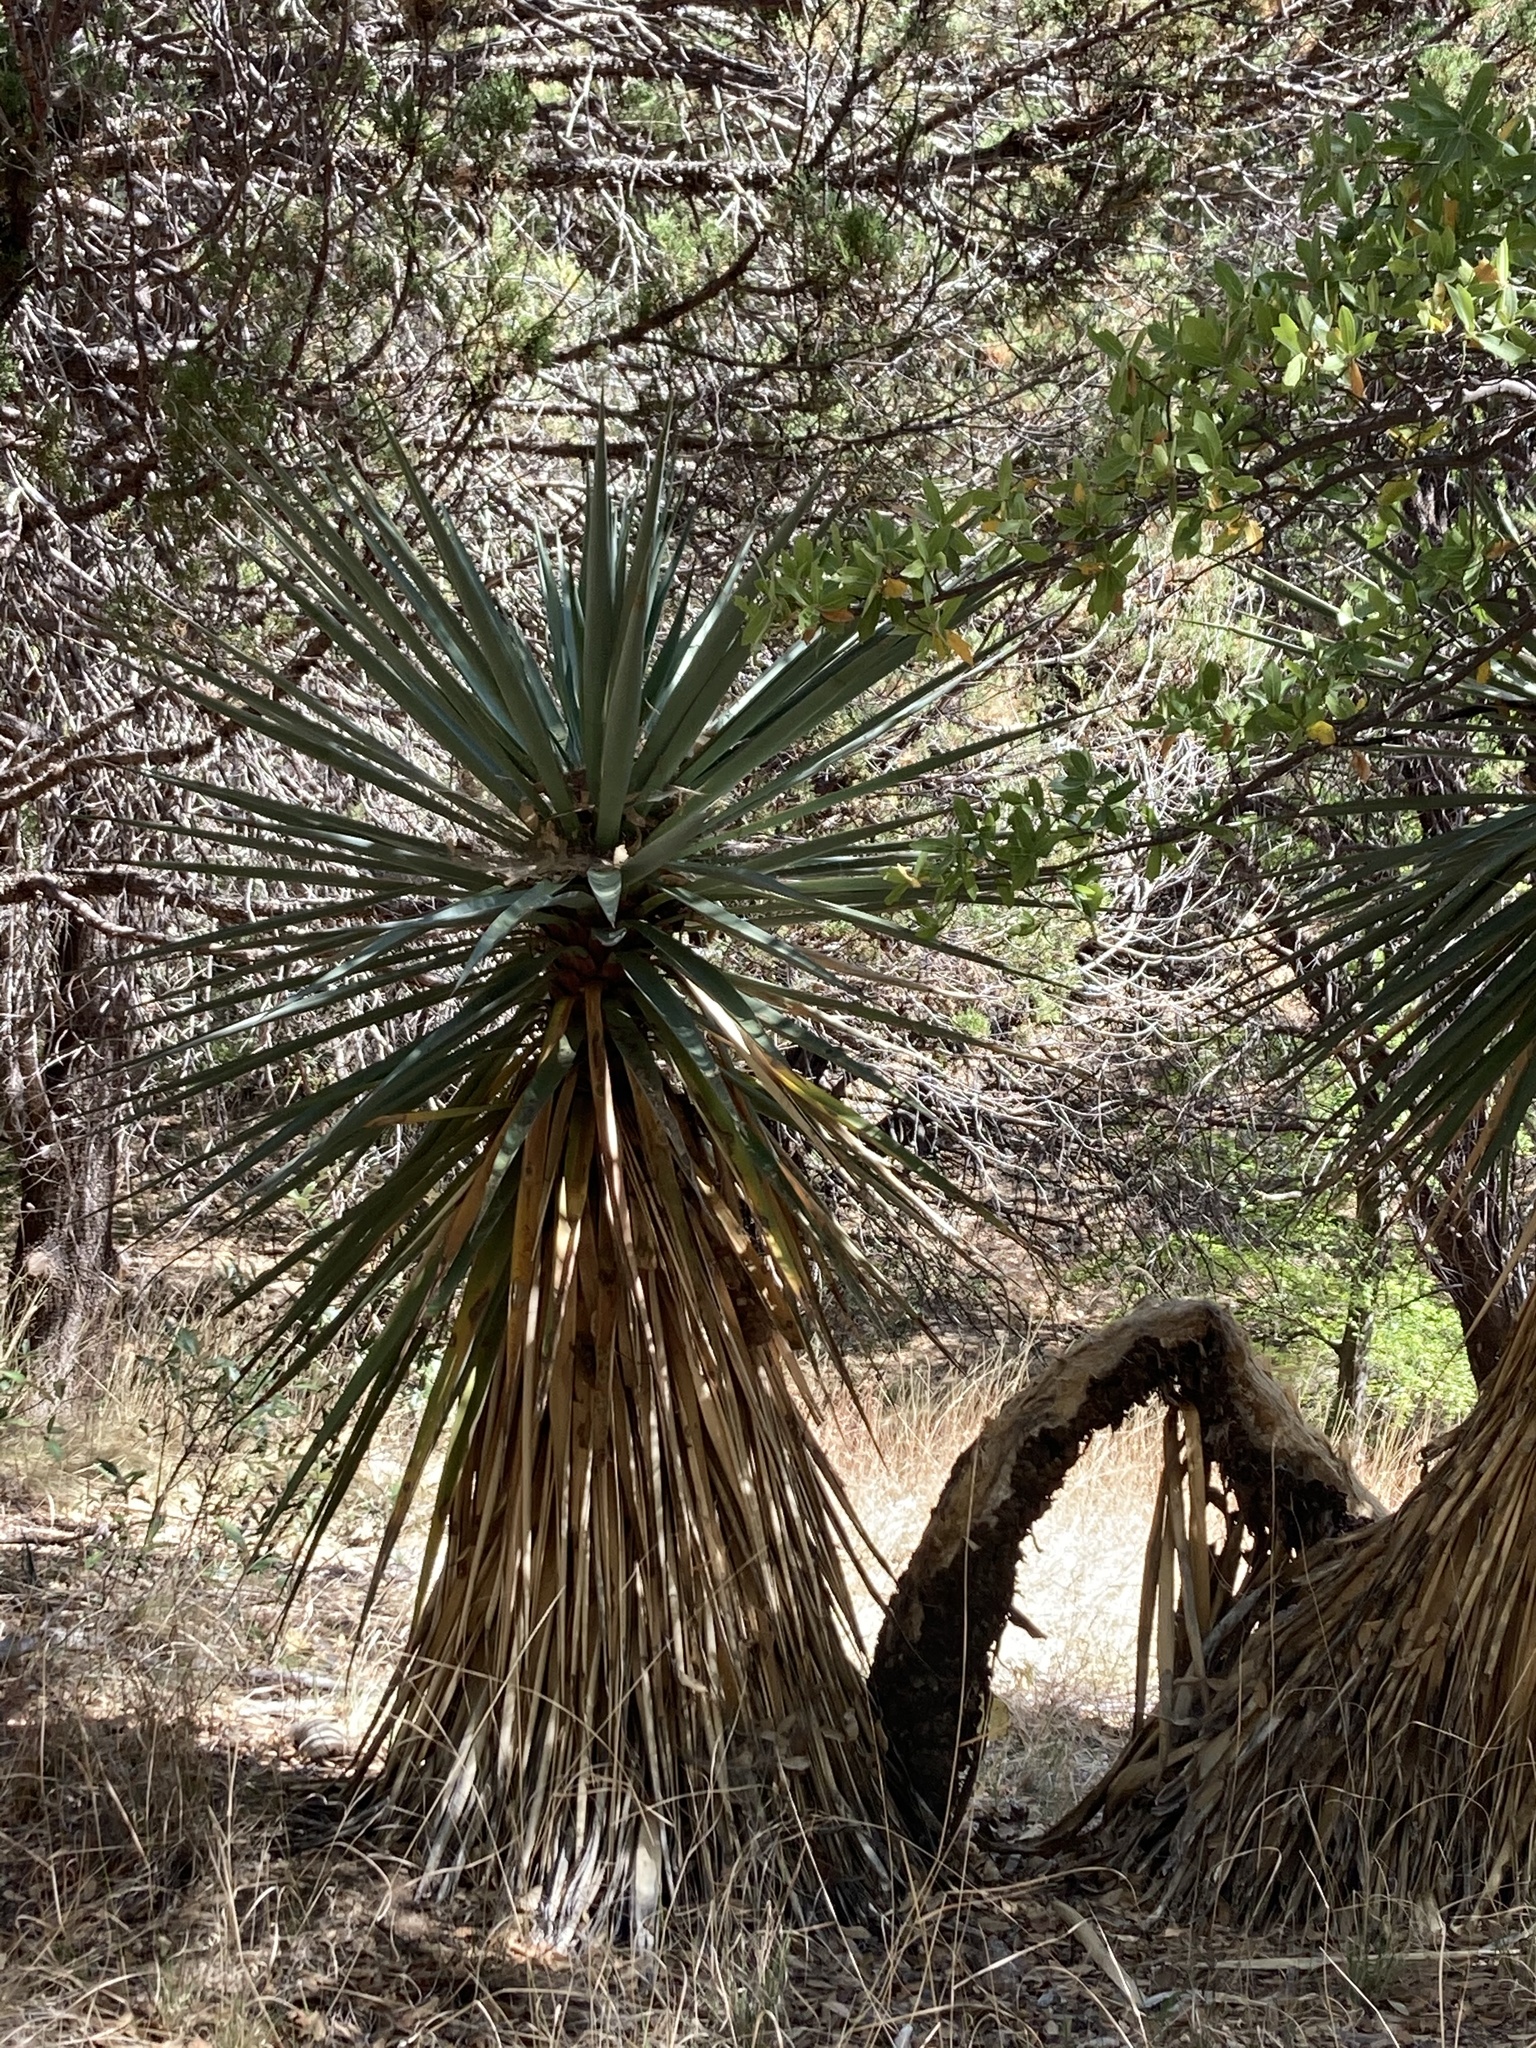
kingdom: Plantae
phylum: Tracheophyta
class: Liliopsida
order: Asparagales
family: Asparagaceae
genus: Yucca
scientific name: Yucca schottii
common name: Hoary yucca
